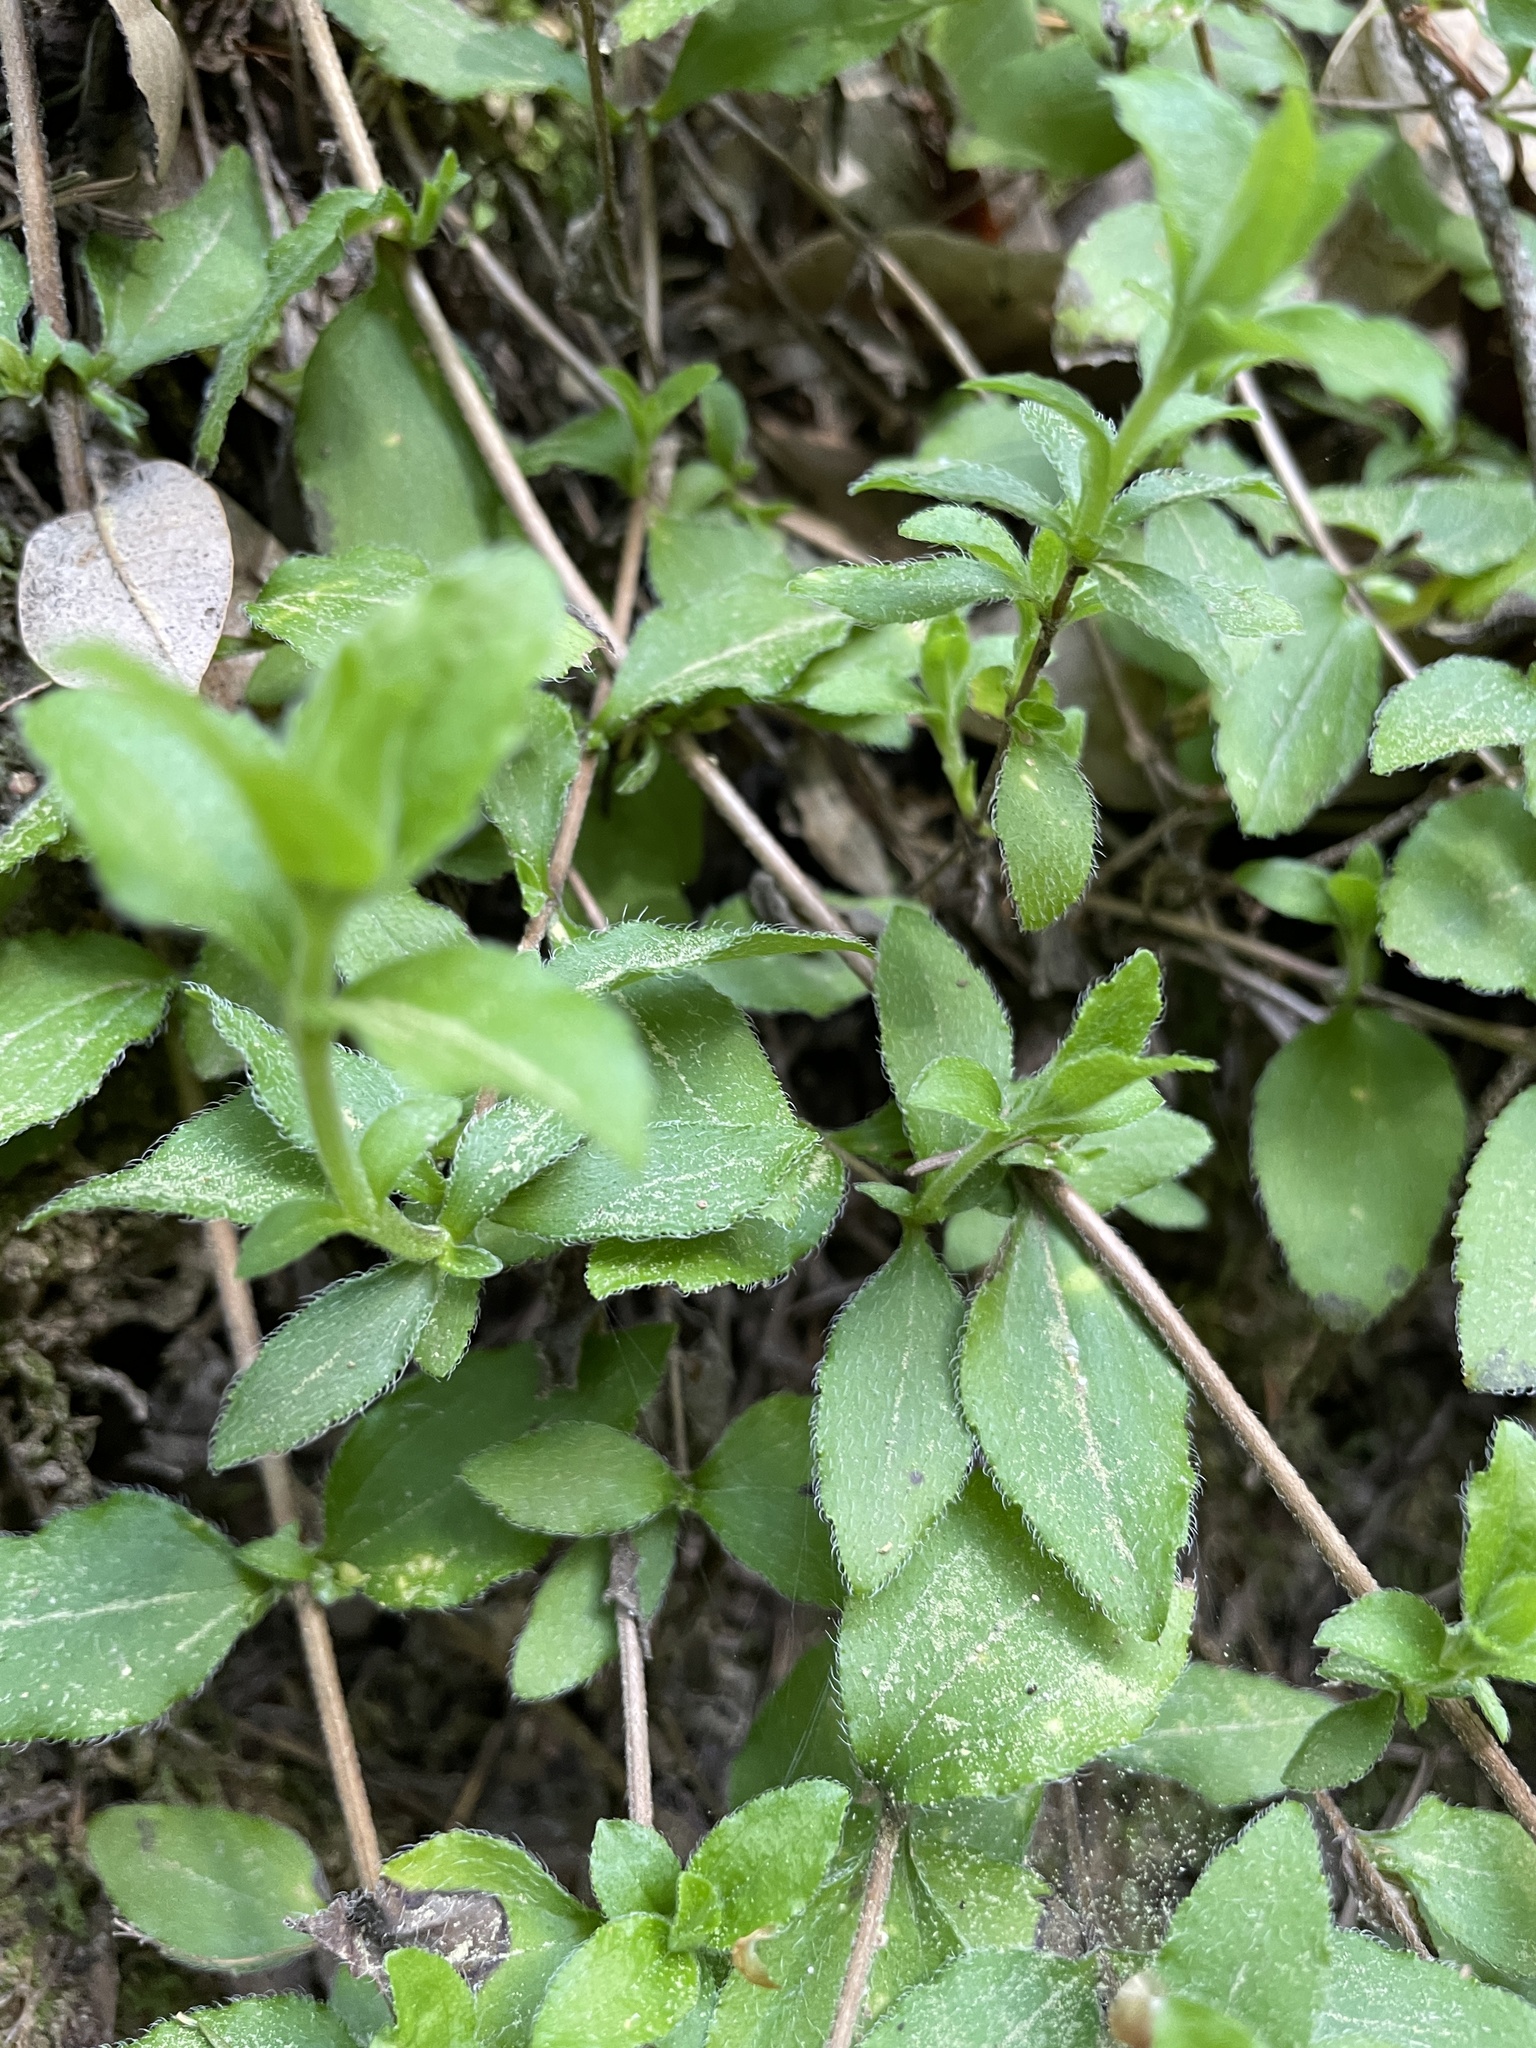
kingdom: Plantae
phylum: Tracheophyta
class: Magnoliopsida
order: Cornales
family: Hydrangeaceae
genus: Whipplea
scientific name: Whipplea modesta
